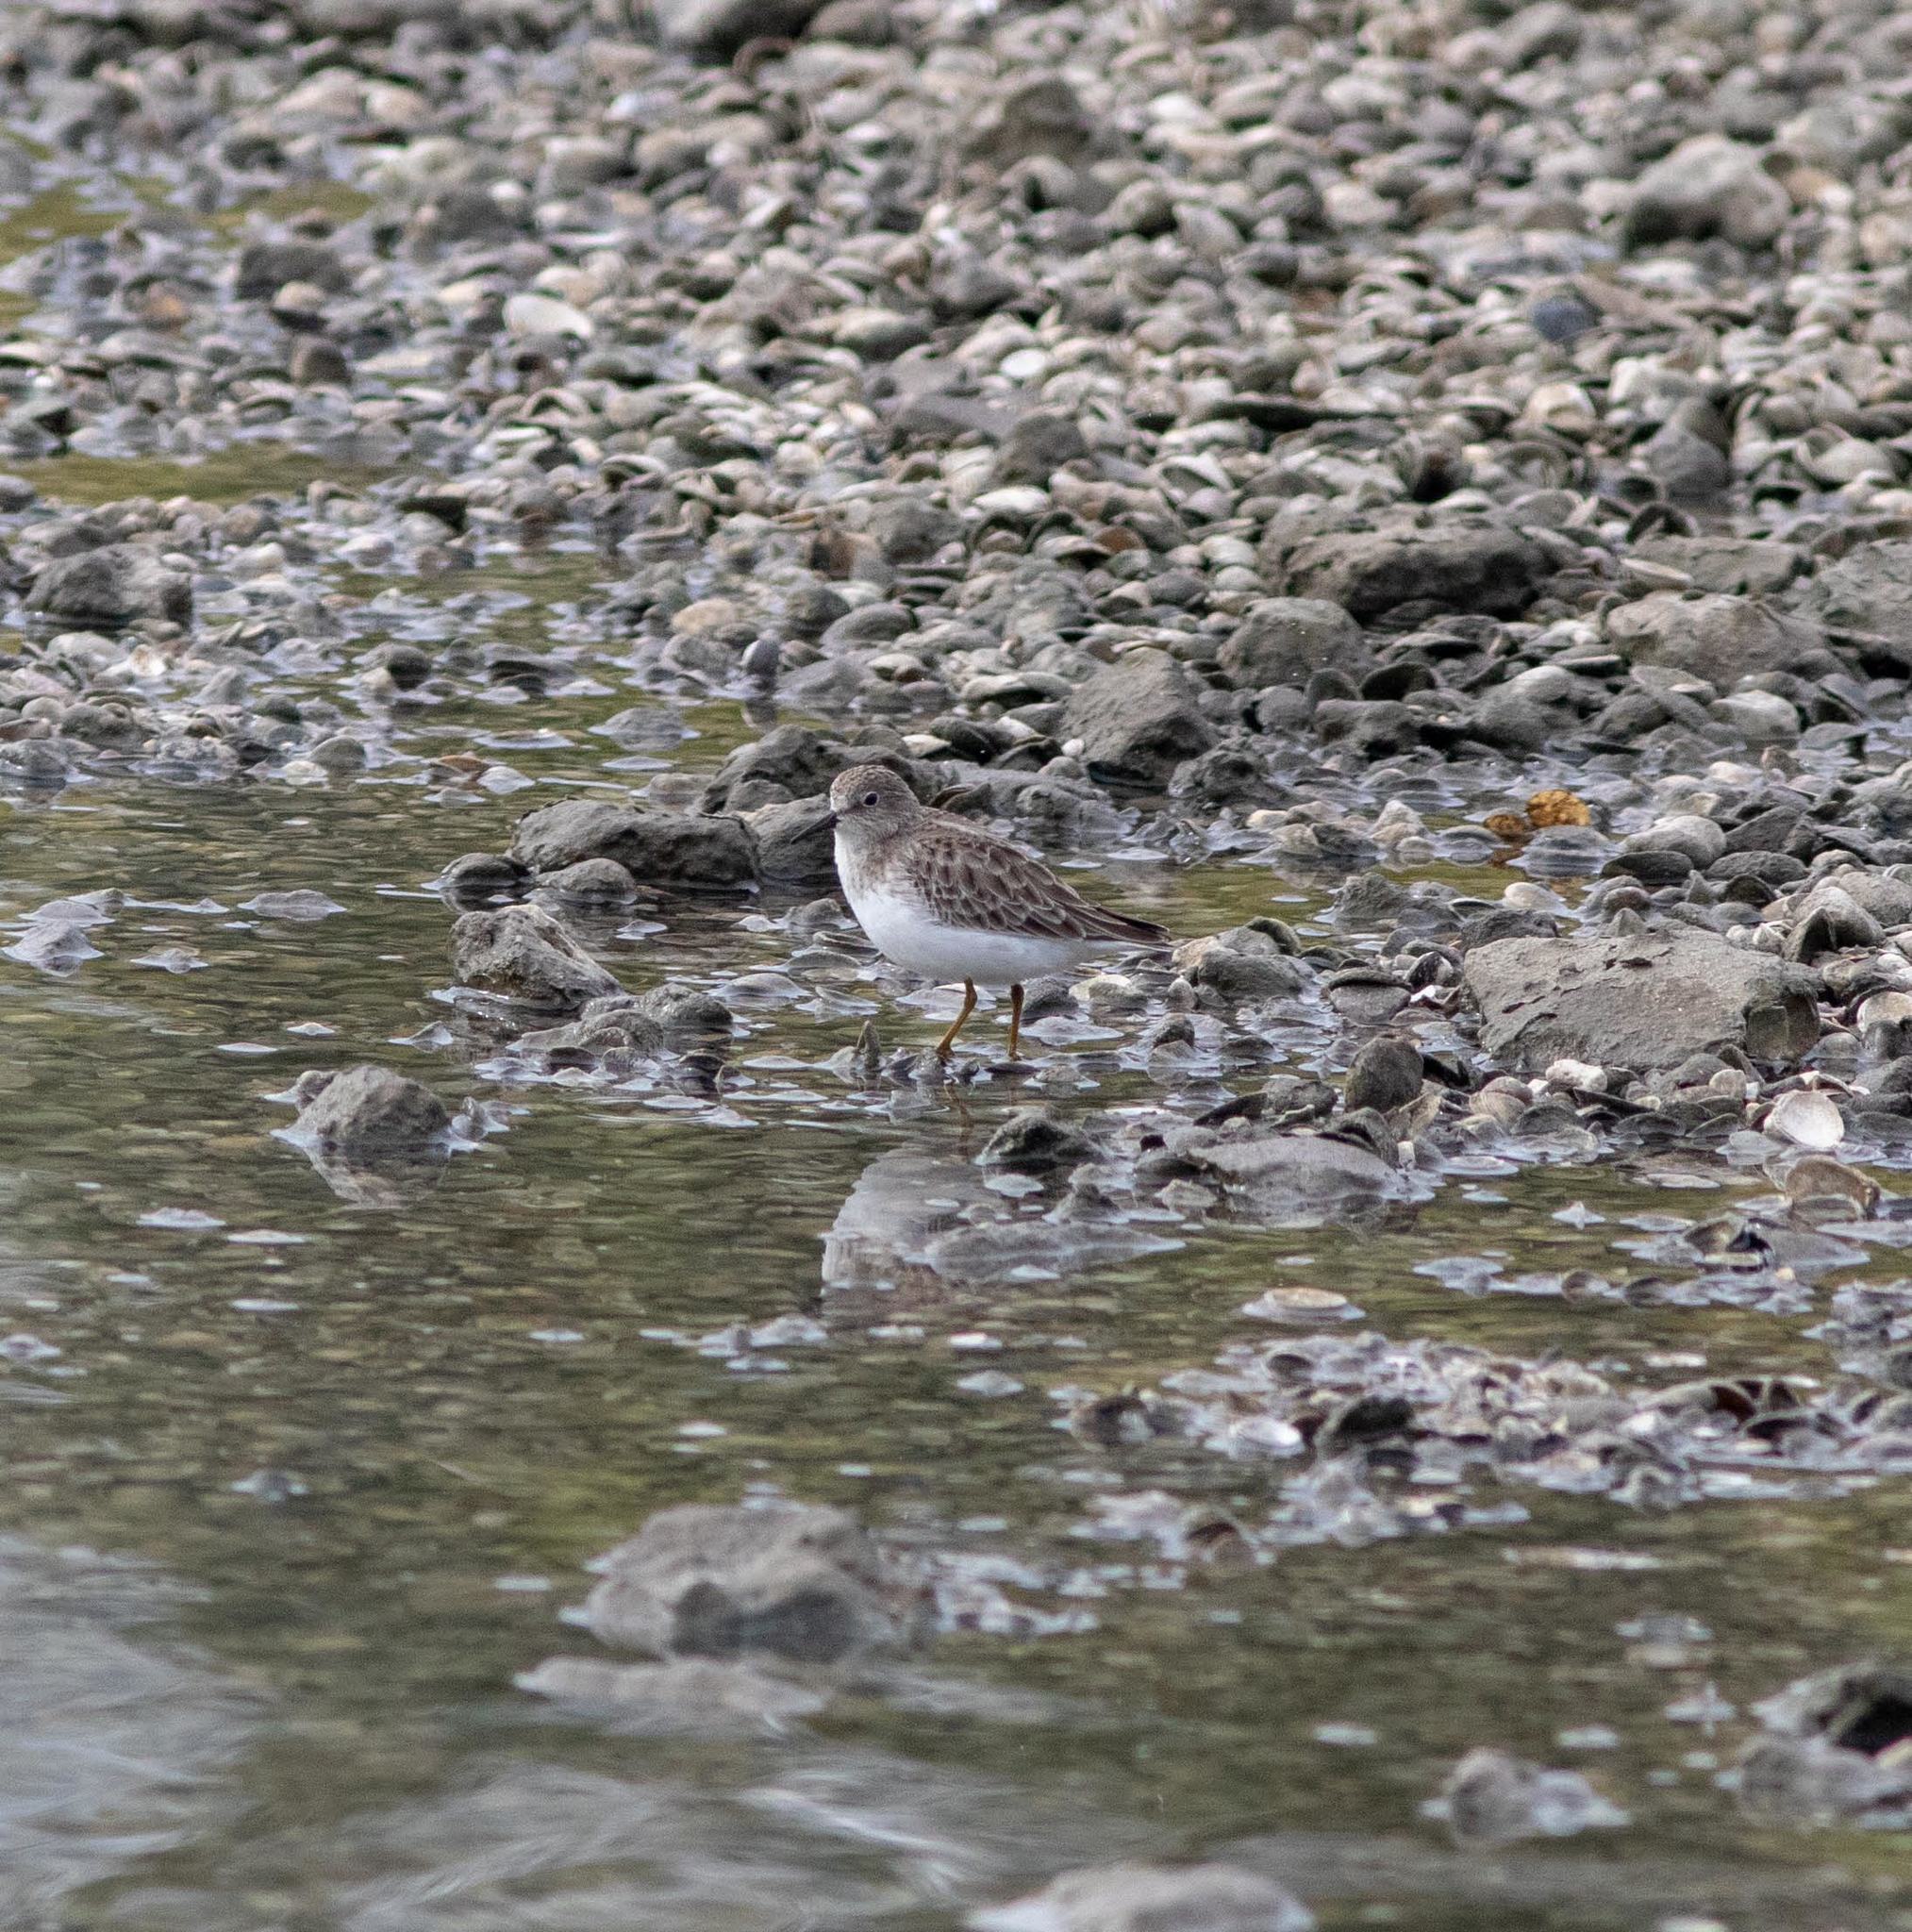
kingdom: Animalia
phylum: Chordata
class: Aves
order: Charadriiformes
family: Scolopacidae
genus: Calidris
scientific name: Calidris minutilla
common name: Least sandpiper
